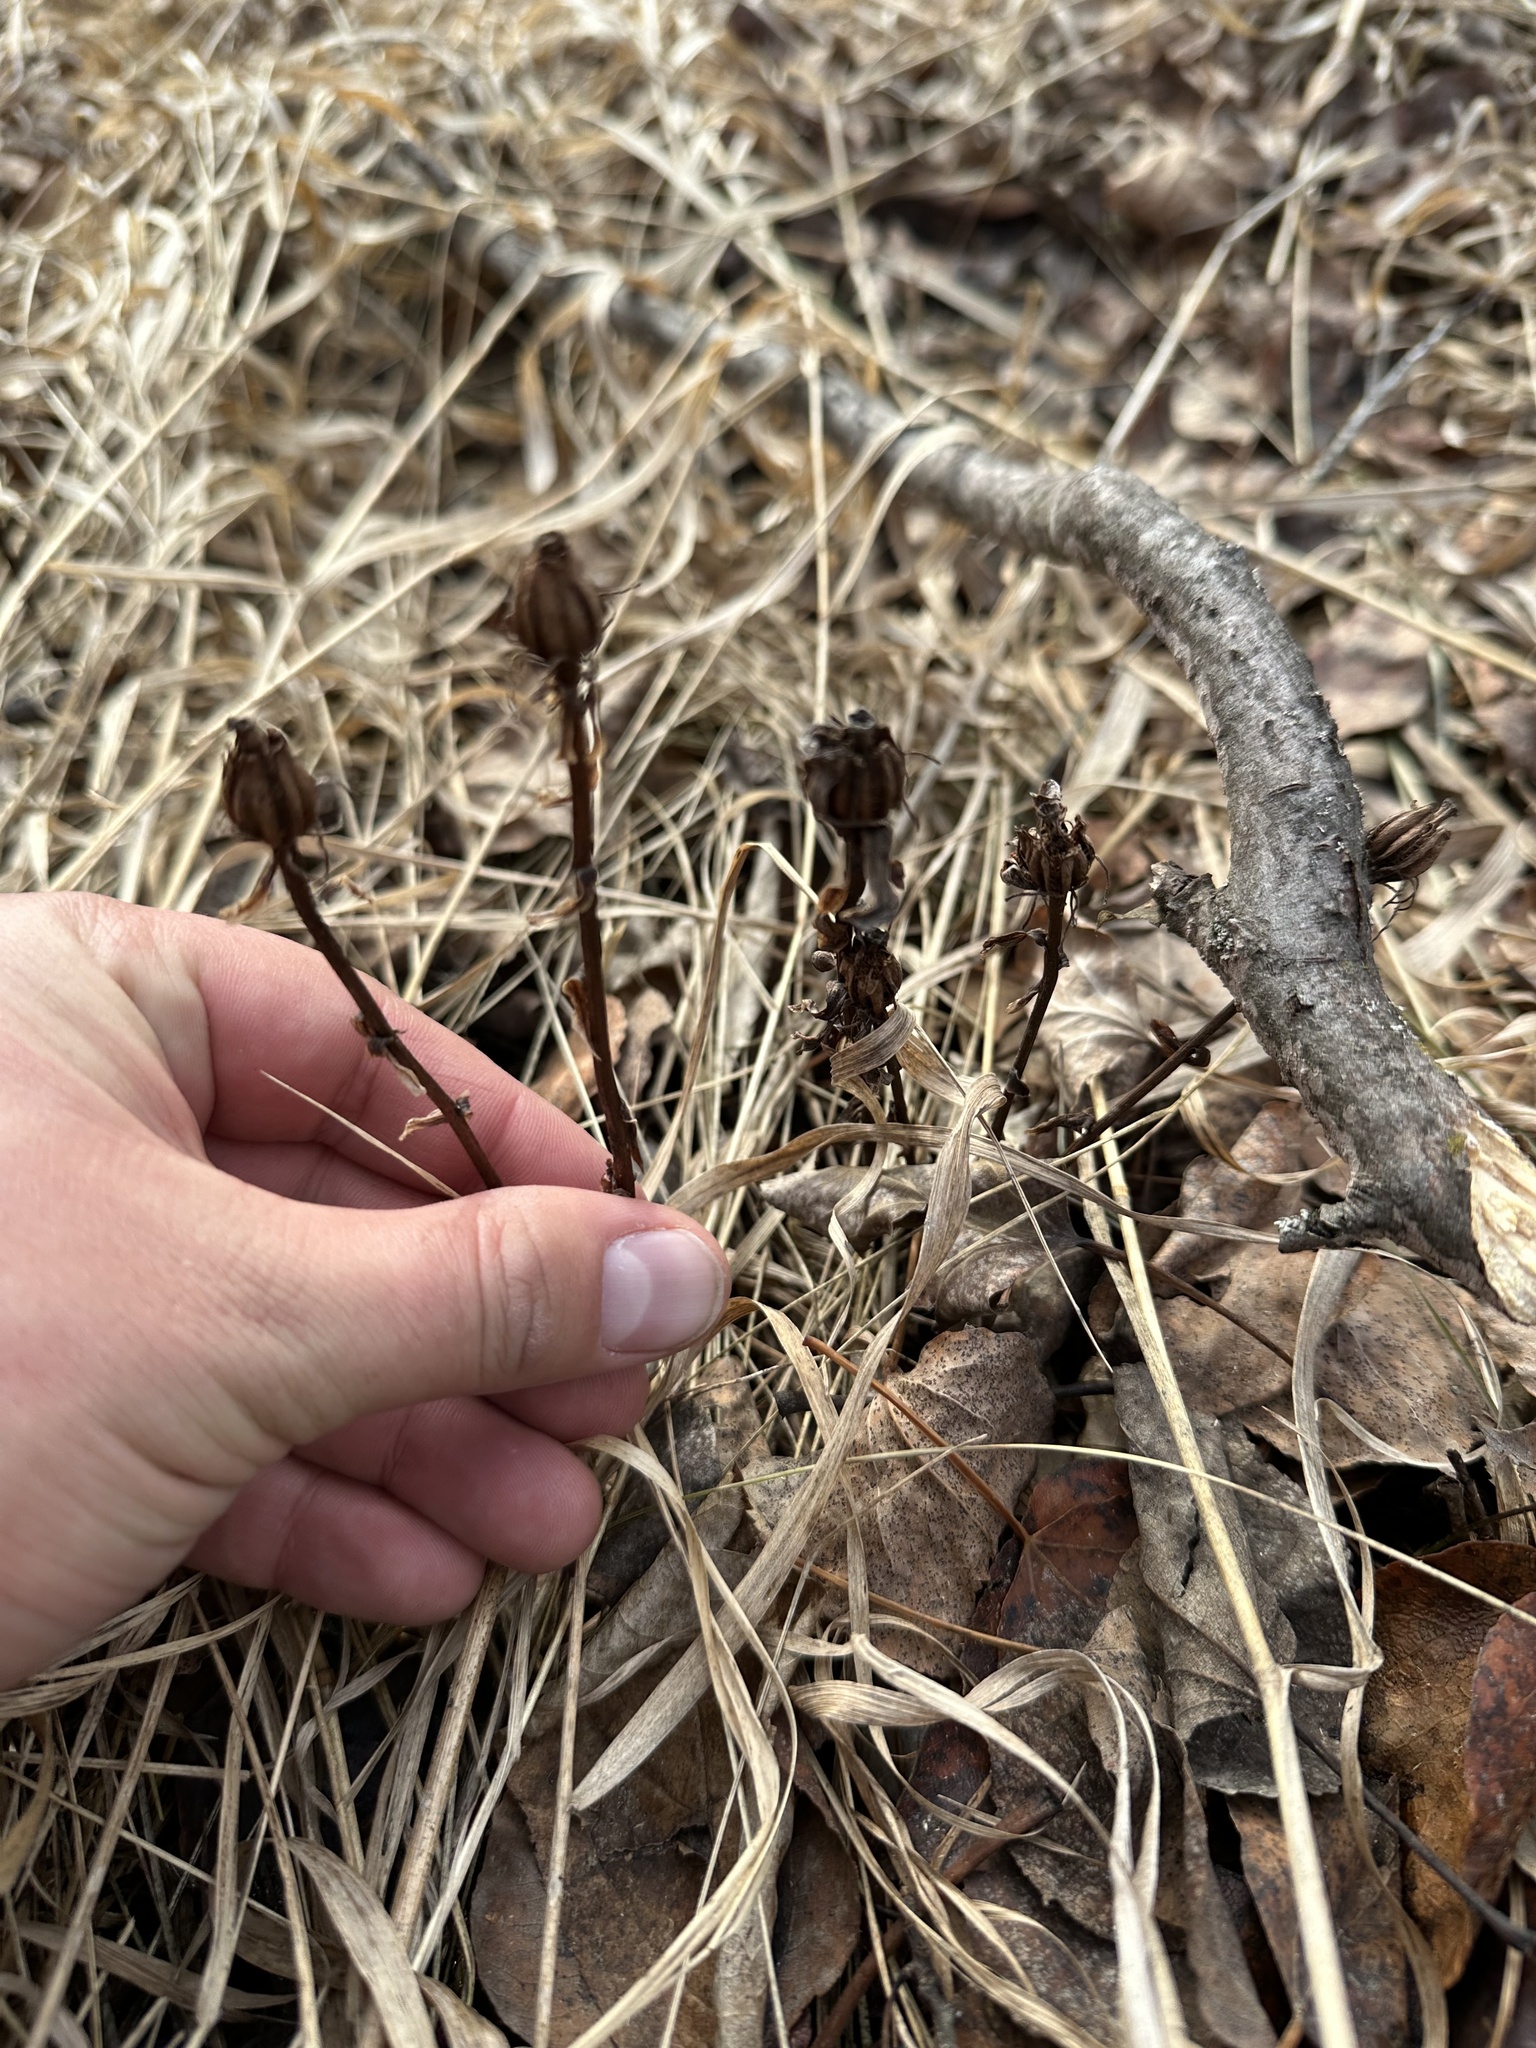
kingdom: Plantae
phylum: Tracheophyta
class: Magnoliopsida
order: Ericales
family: Ericaceae
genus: Monotropa
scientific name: Monotropa uniflora
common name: Convulsion root
